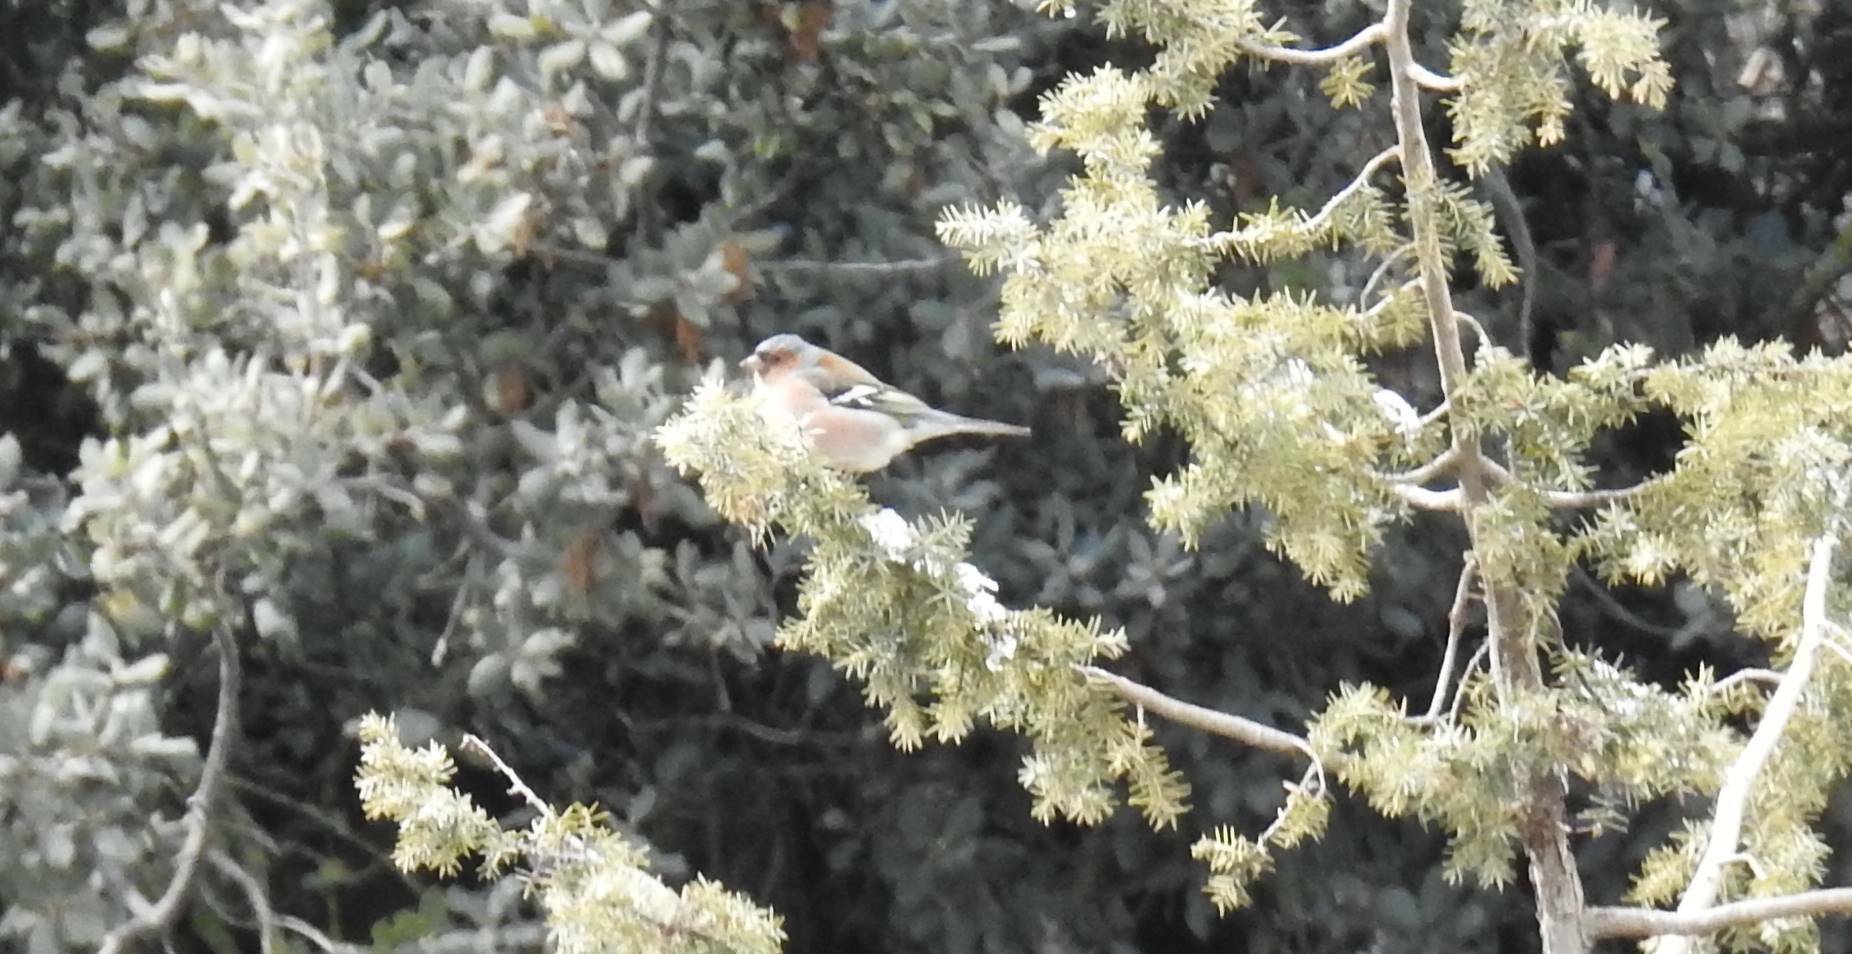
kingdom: Animalia
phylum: Chordata
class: Aves
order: Passeriformes
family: Fringillidae
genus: Fringilla
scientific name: Fringilla coelebs
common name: Common chaffinch
